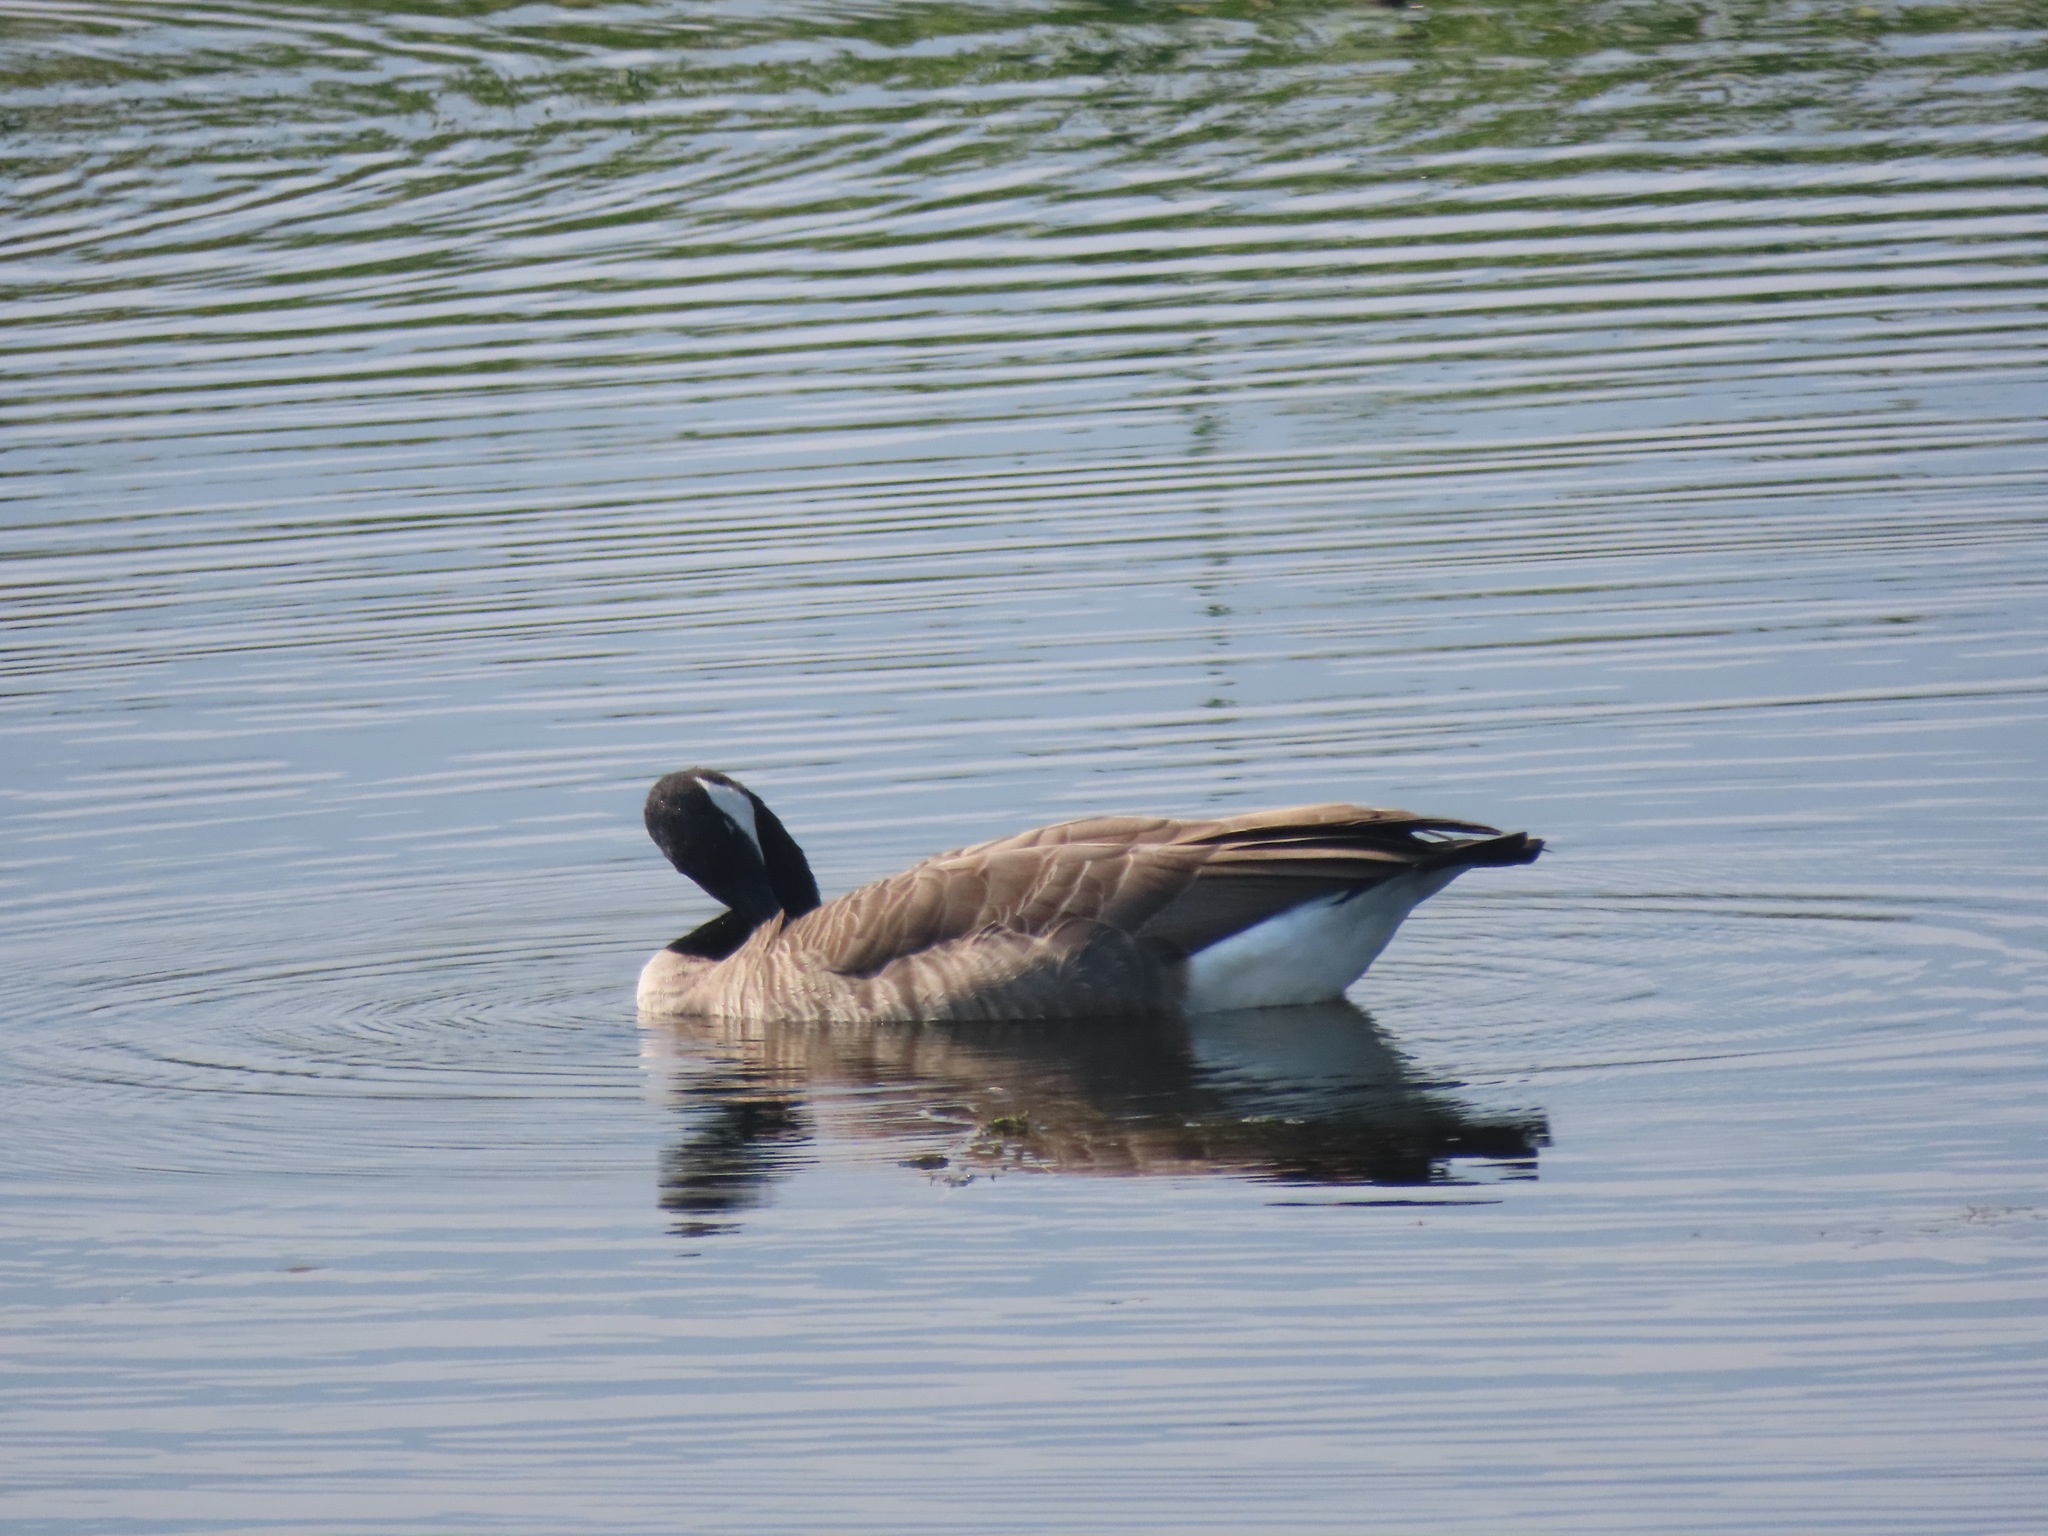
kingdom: Animalia
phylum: Chordata
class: Aves
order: Anseriformes
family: Anatidae
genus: Branta
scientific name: Branta canadensis
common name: Canada goose
